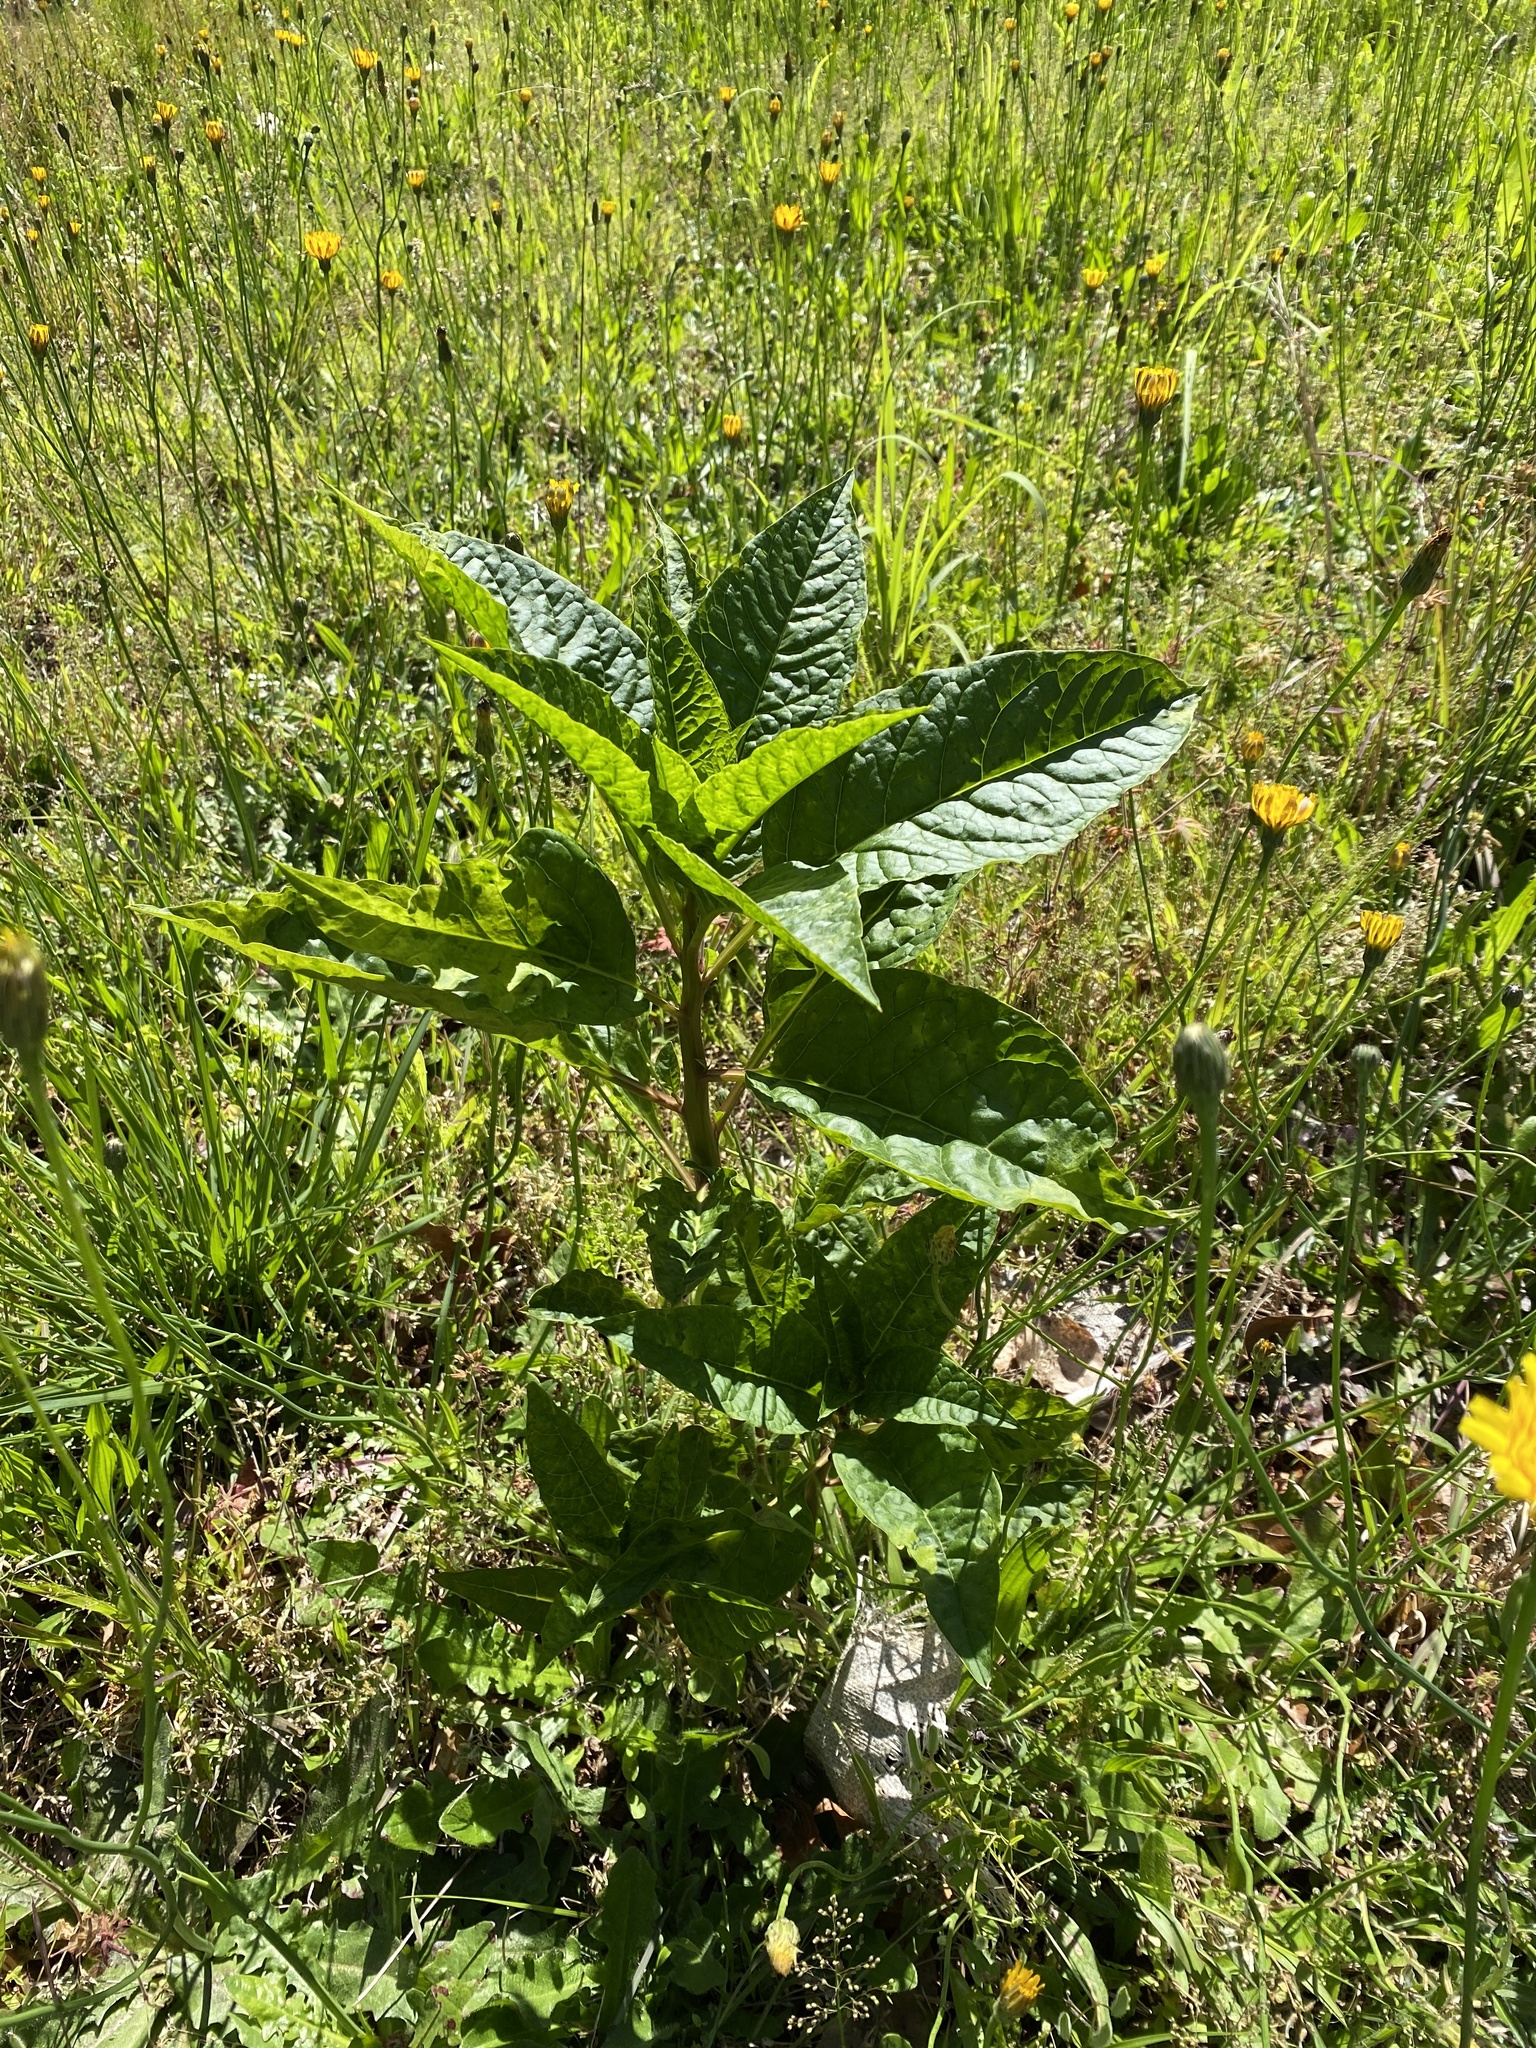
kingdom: Viruses
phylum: Pisuviricota
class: Stelpaviricetes
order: Patatavirales
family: Potyviridae
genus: Potyvirus
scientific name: Potyvirus Pokeweed mosaic virus
